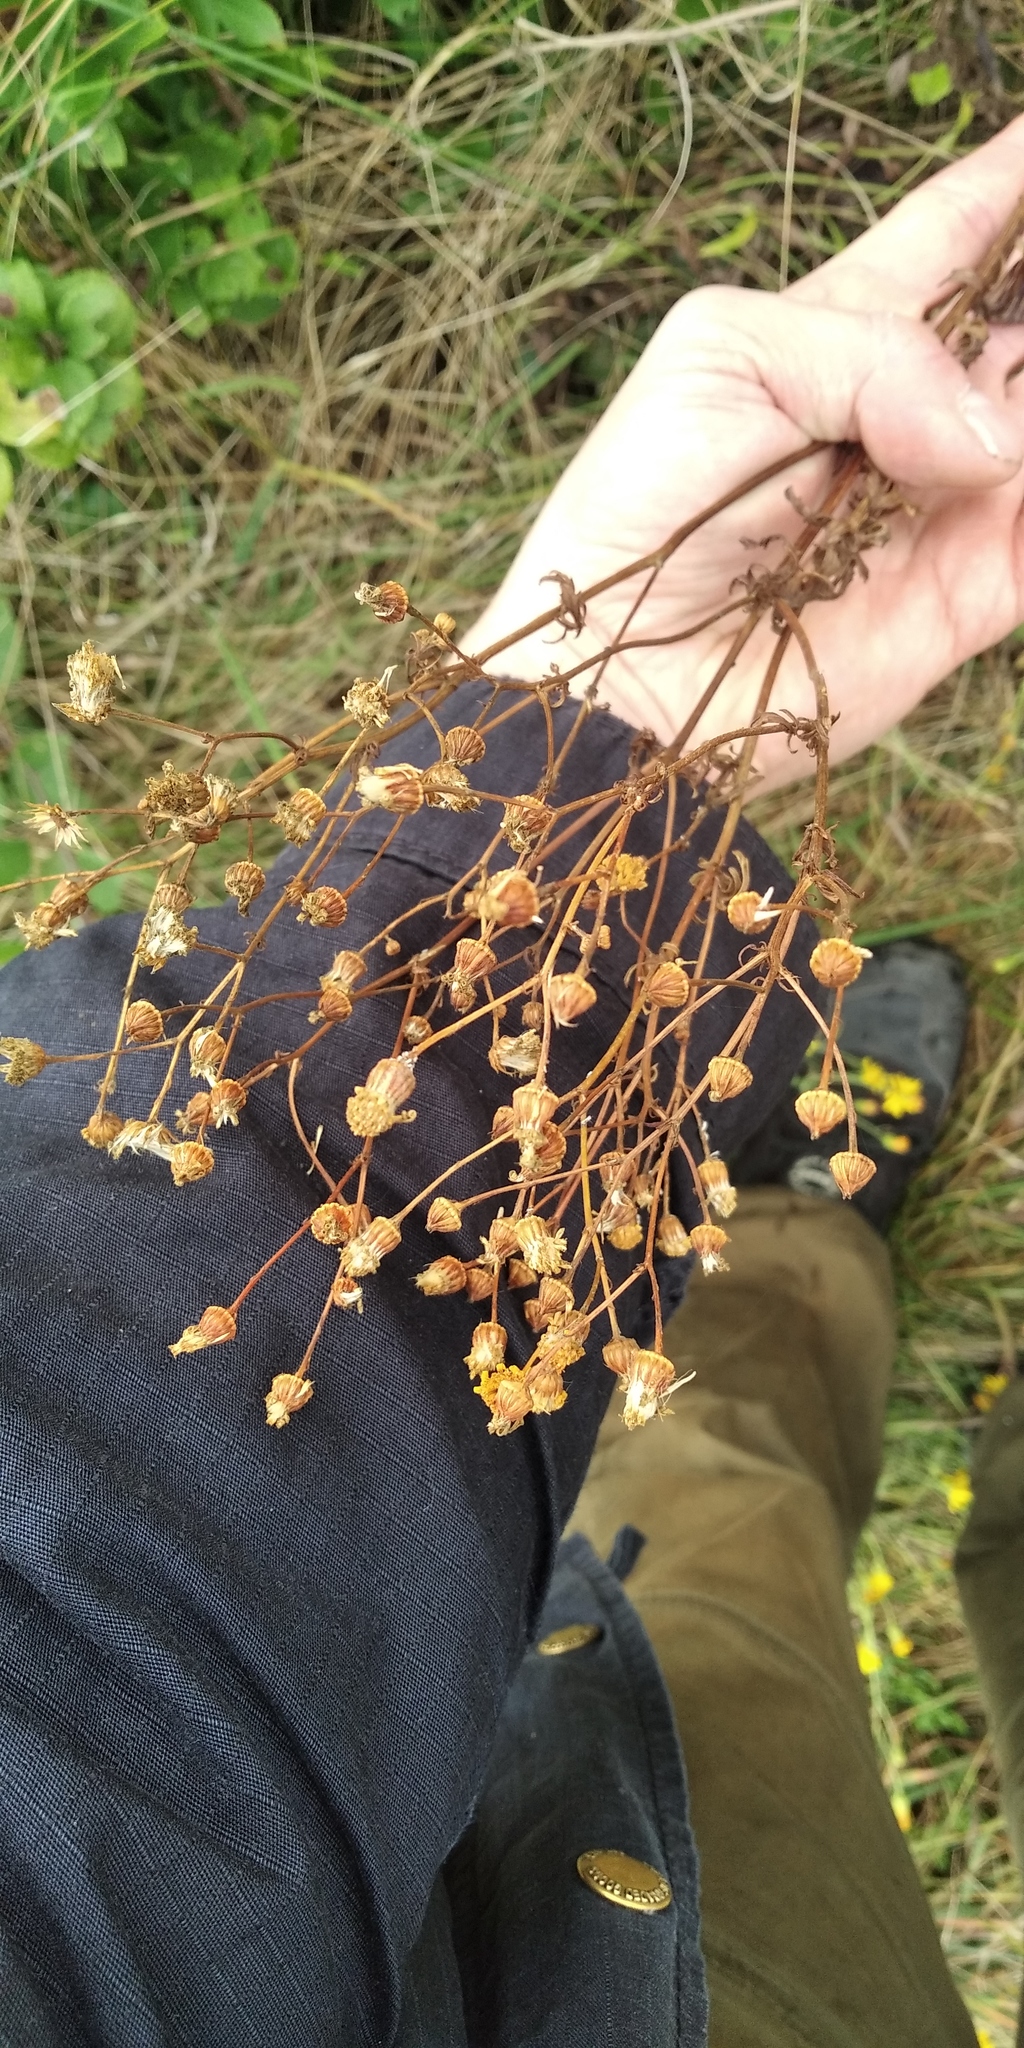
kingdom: Plantae
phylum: Tracheophyta
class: Magnoliopsida
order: Asterales
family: Asteraceae
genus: Jacobaea
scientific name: Jacobaea vulgaris
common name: Stinking willie
